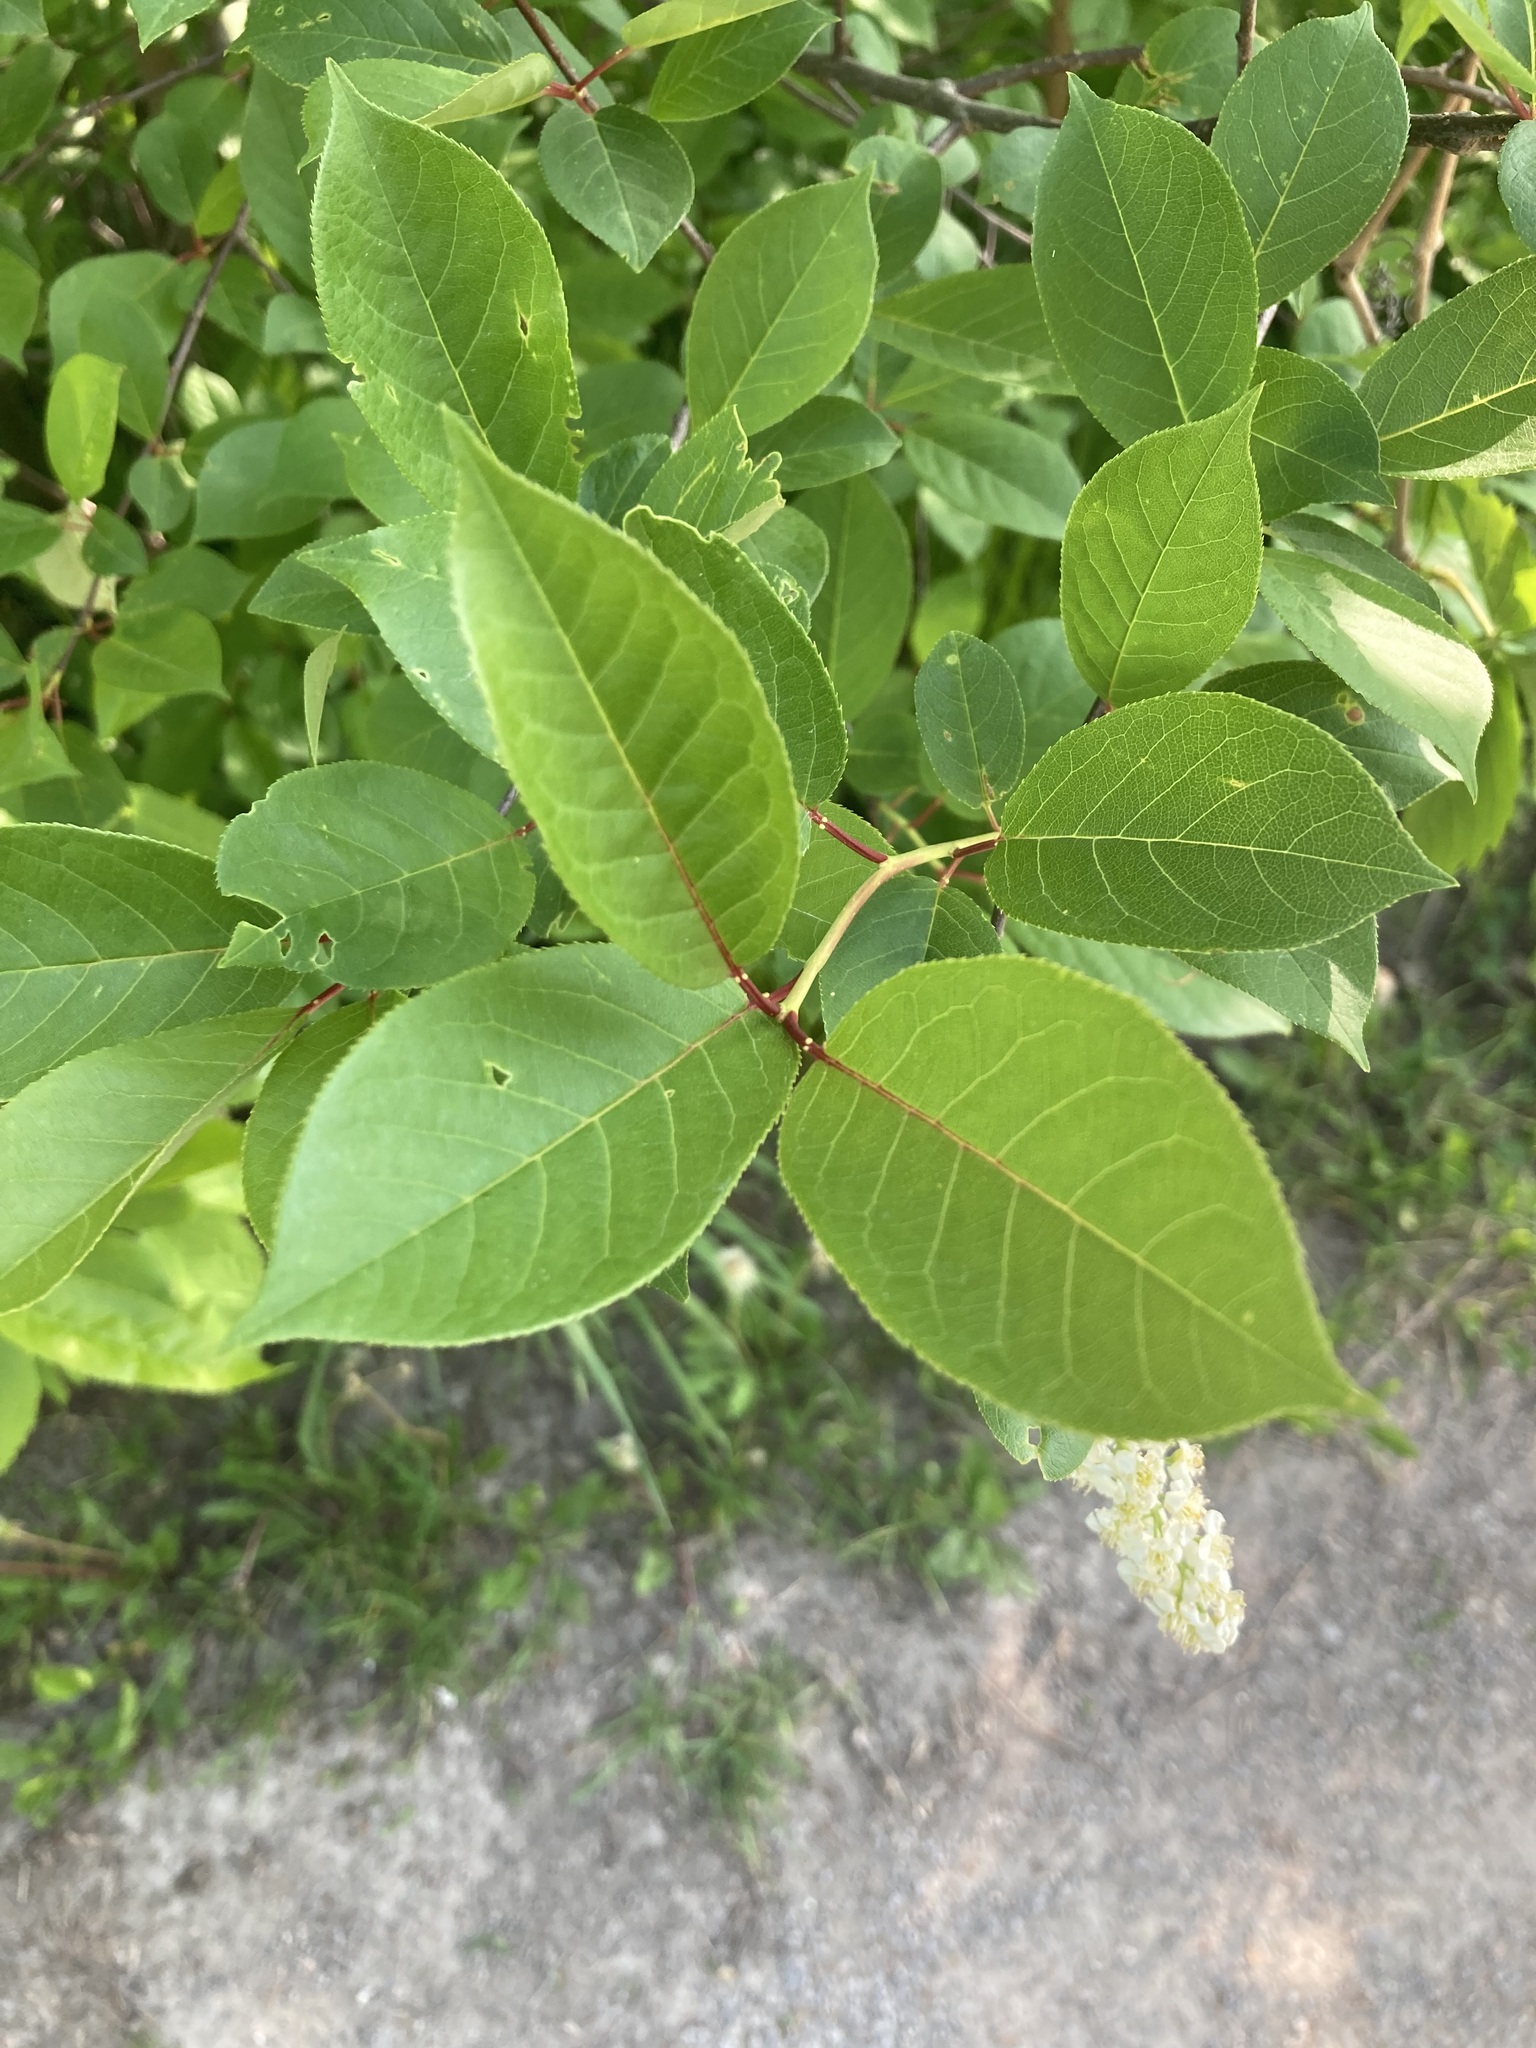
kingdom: Plantae
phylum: Tracheophyta
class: Magnoliopsida
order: Rosales
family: Rosaceae
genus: Prunus
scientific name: Prunus virginiana
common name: Chokecherry
